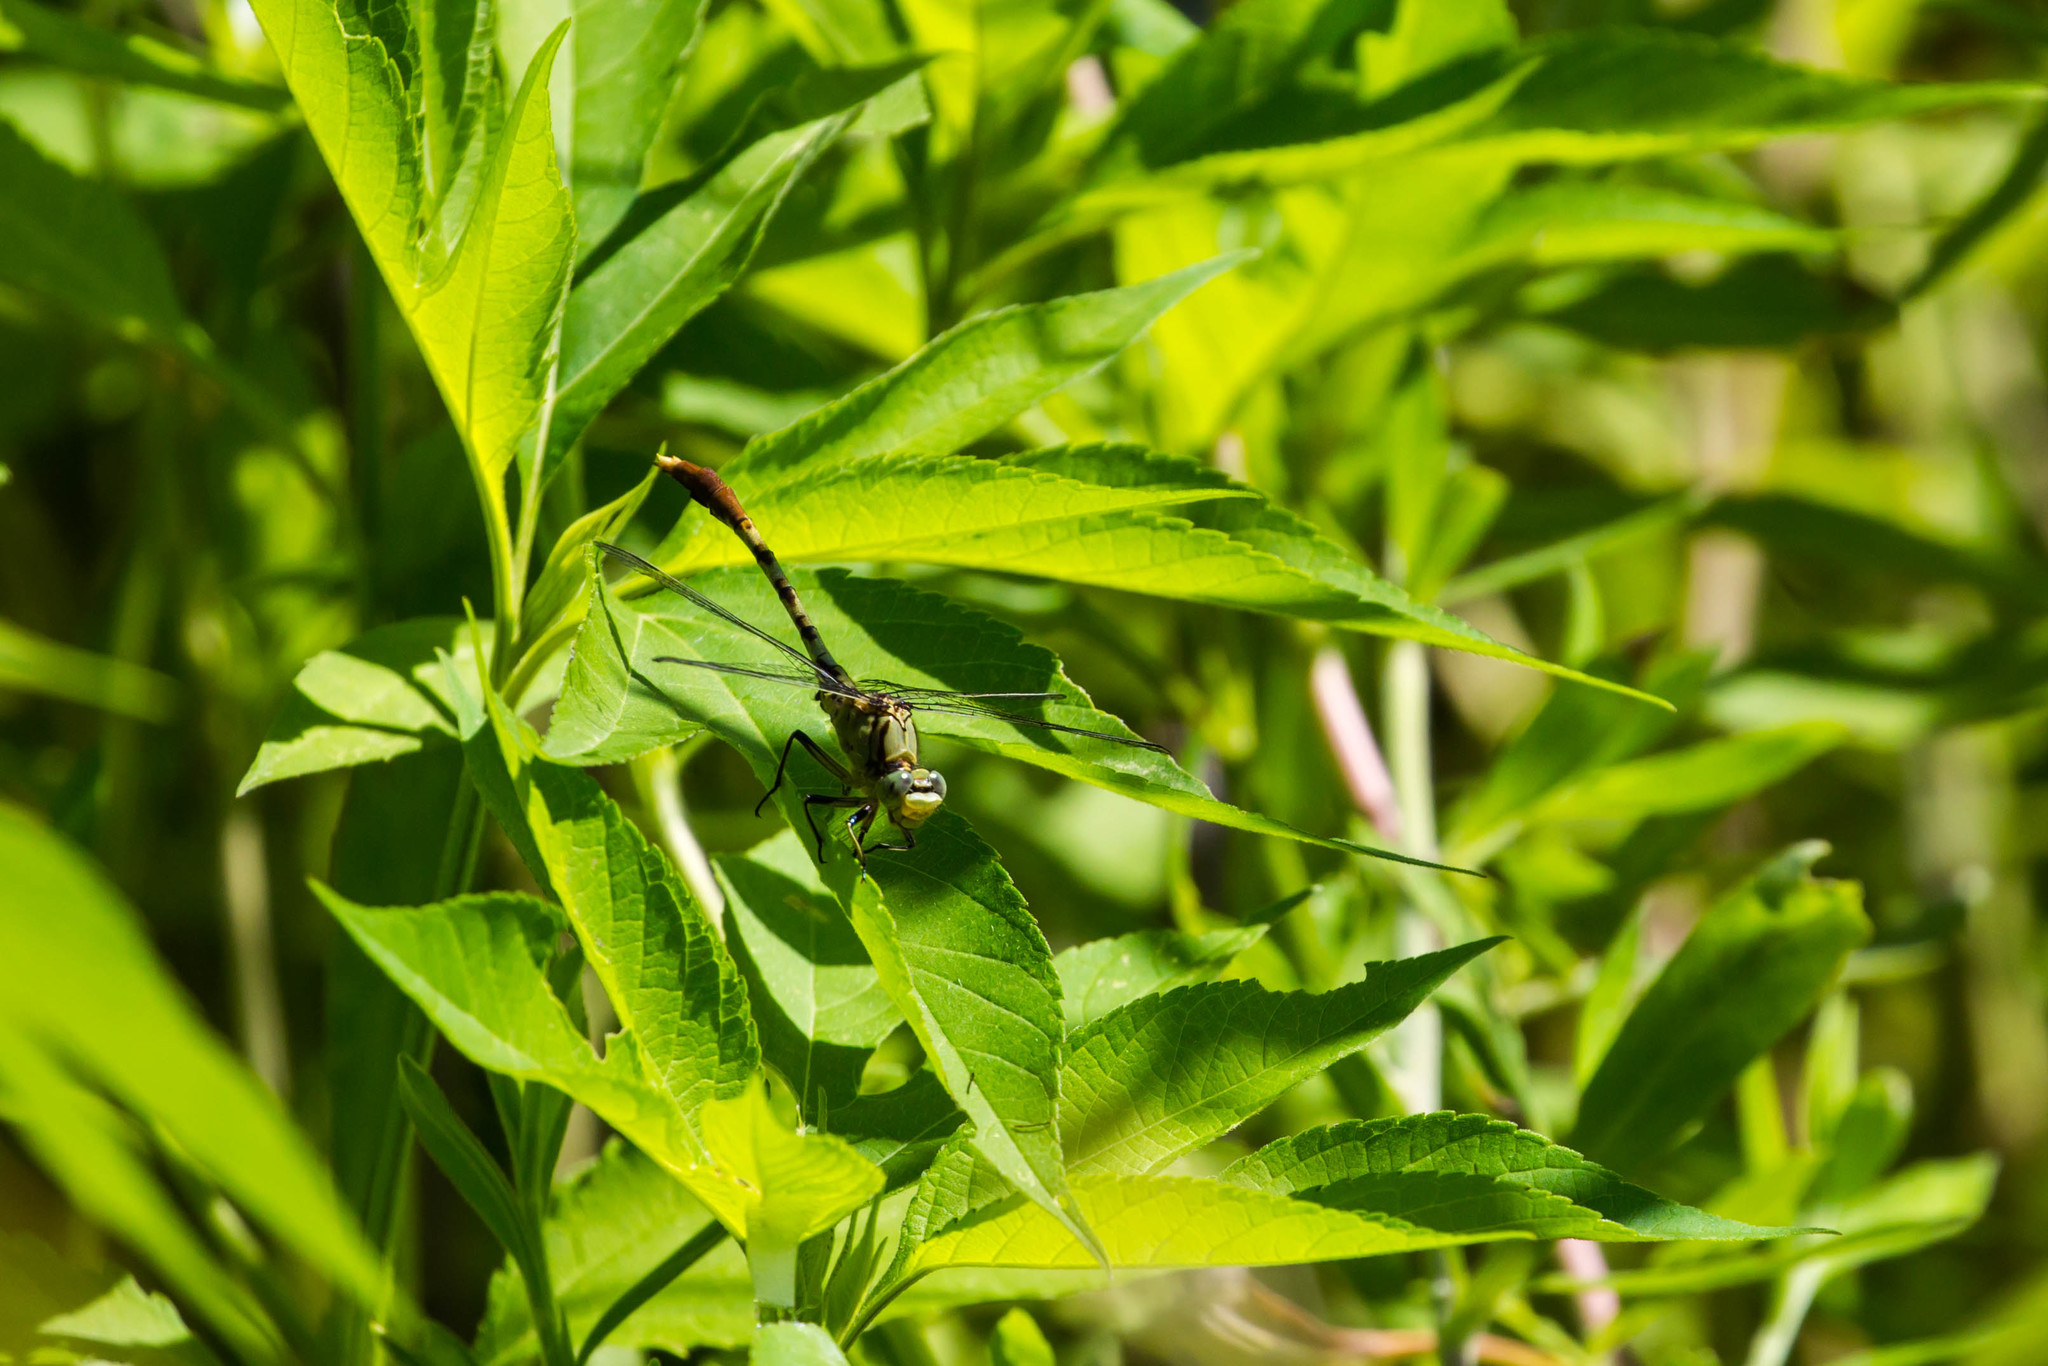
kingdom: Animalia
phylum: Arthropoda
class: Insecta
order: Odonata
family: Gomphidae
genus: Arigomphus
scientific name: Arigomphus submedianus
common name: Jade clubtail
